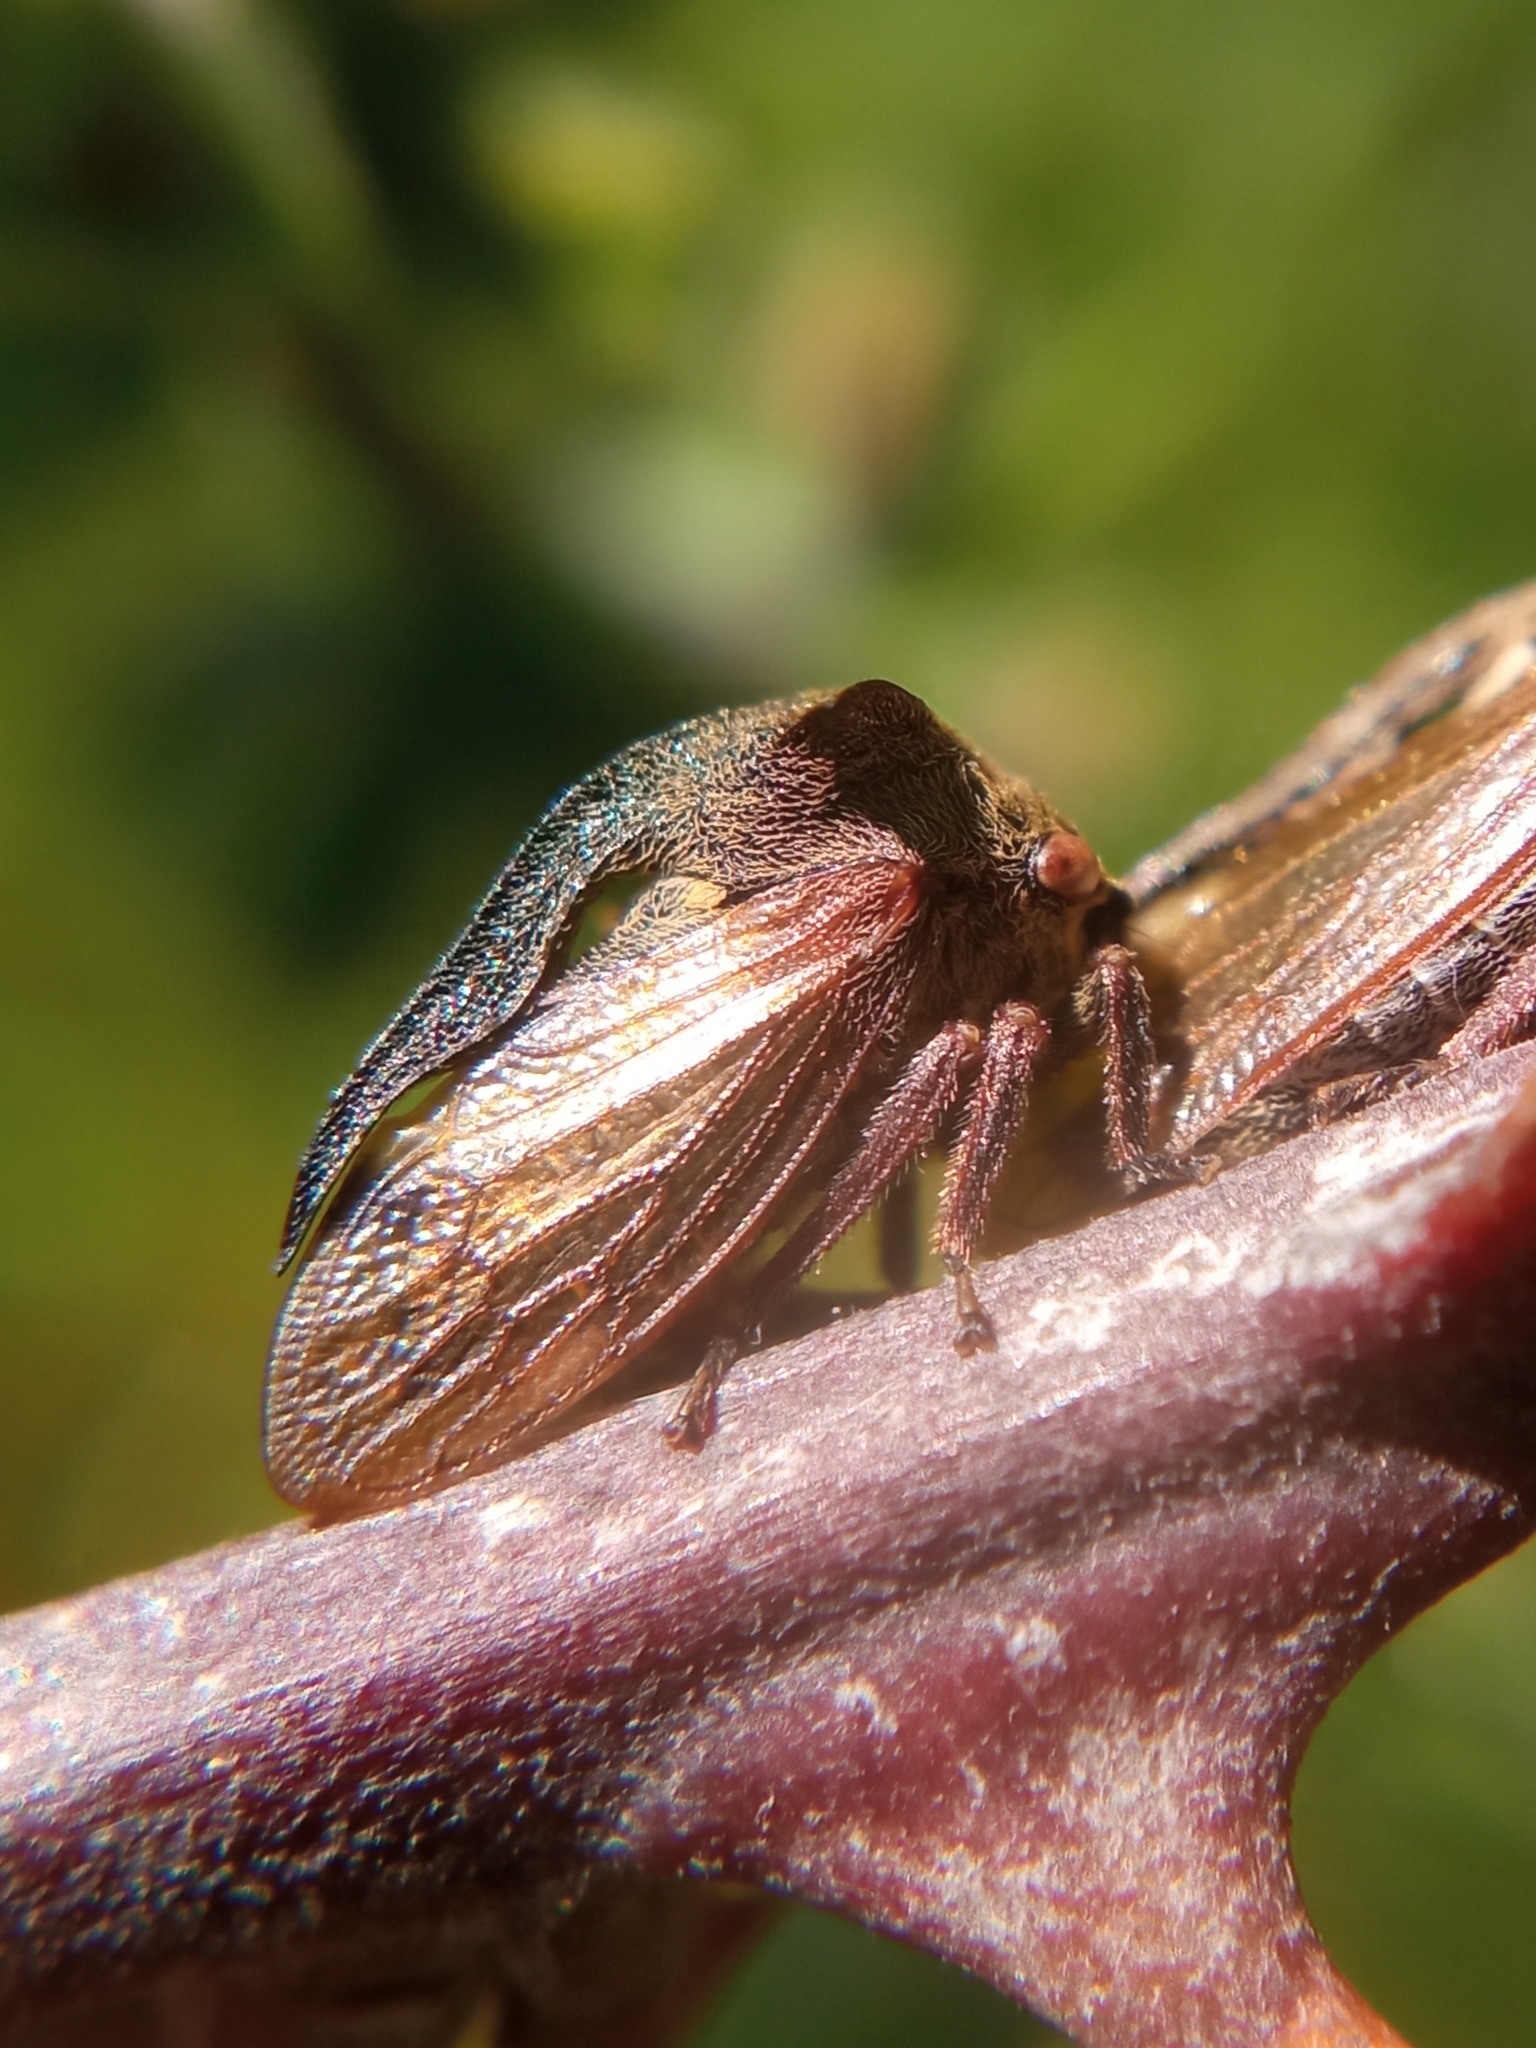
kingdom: Animalia
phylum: Arthropoda
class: Insecta
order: Hemiptera
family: Membracidae
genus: Centrotus
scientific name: Centrotus cornuta
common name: Treehopper
